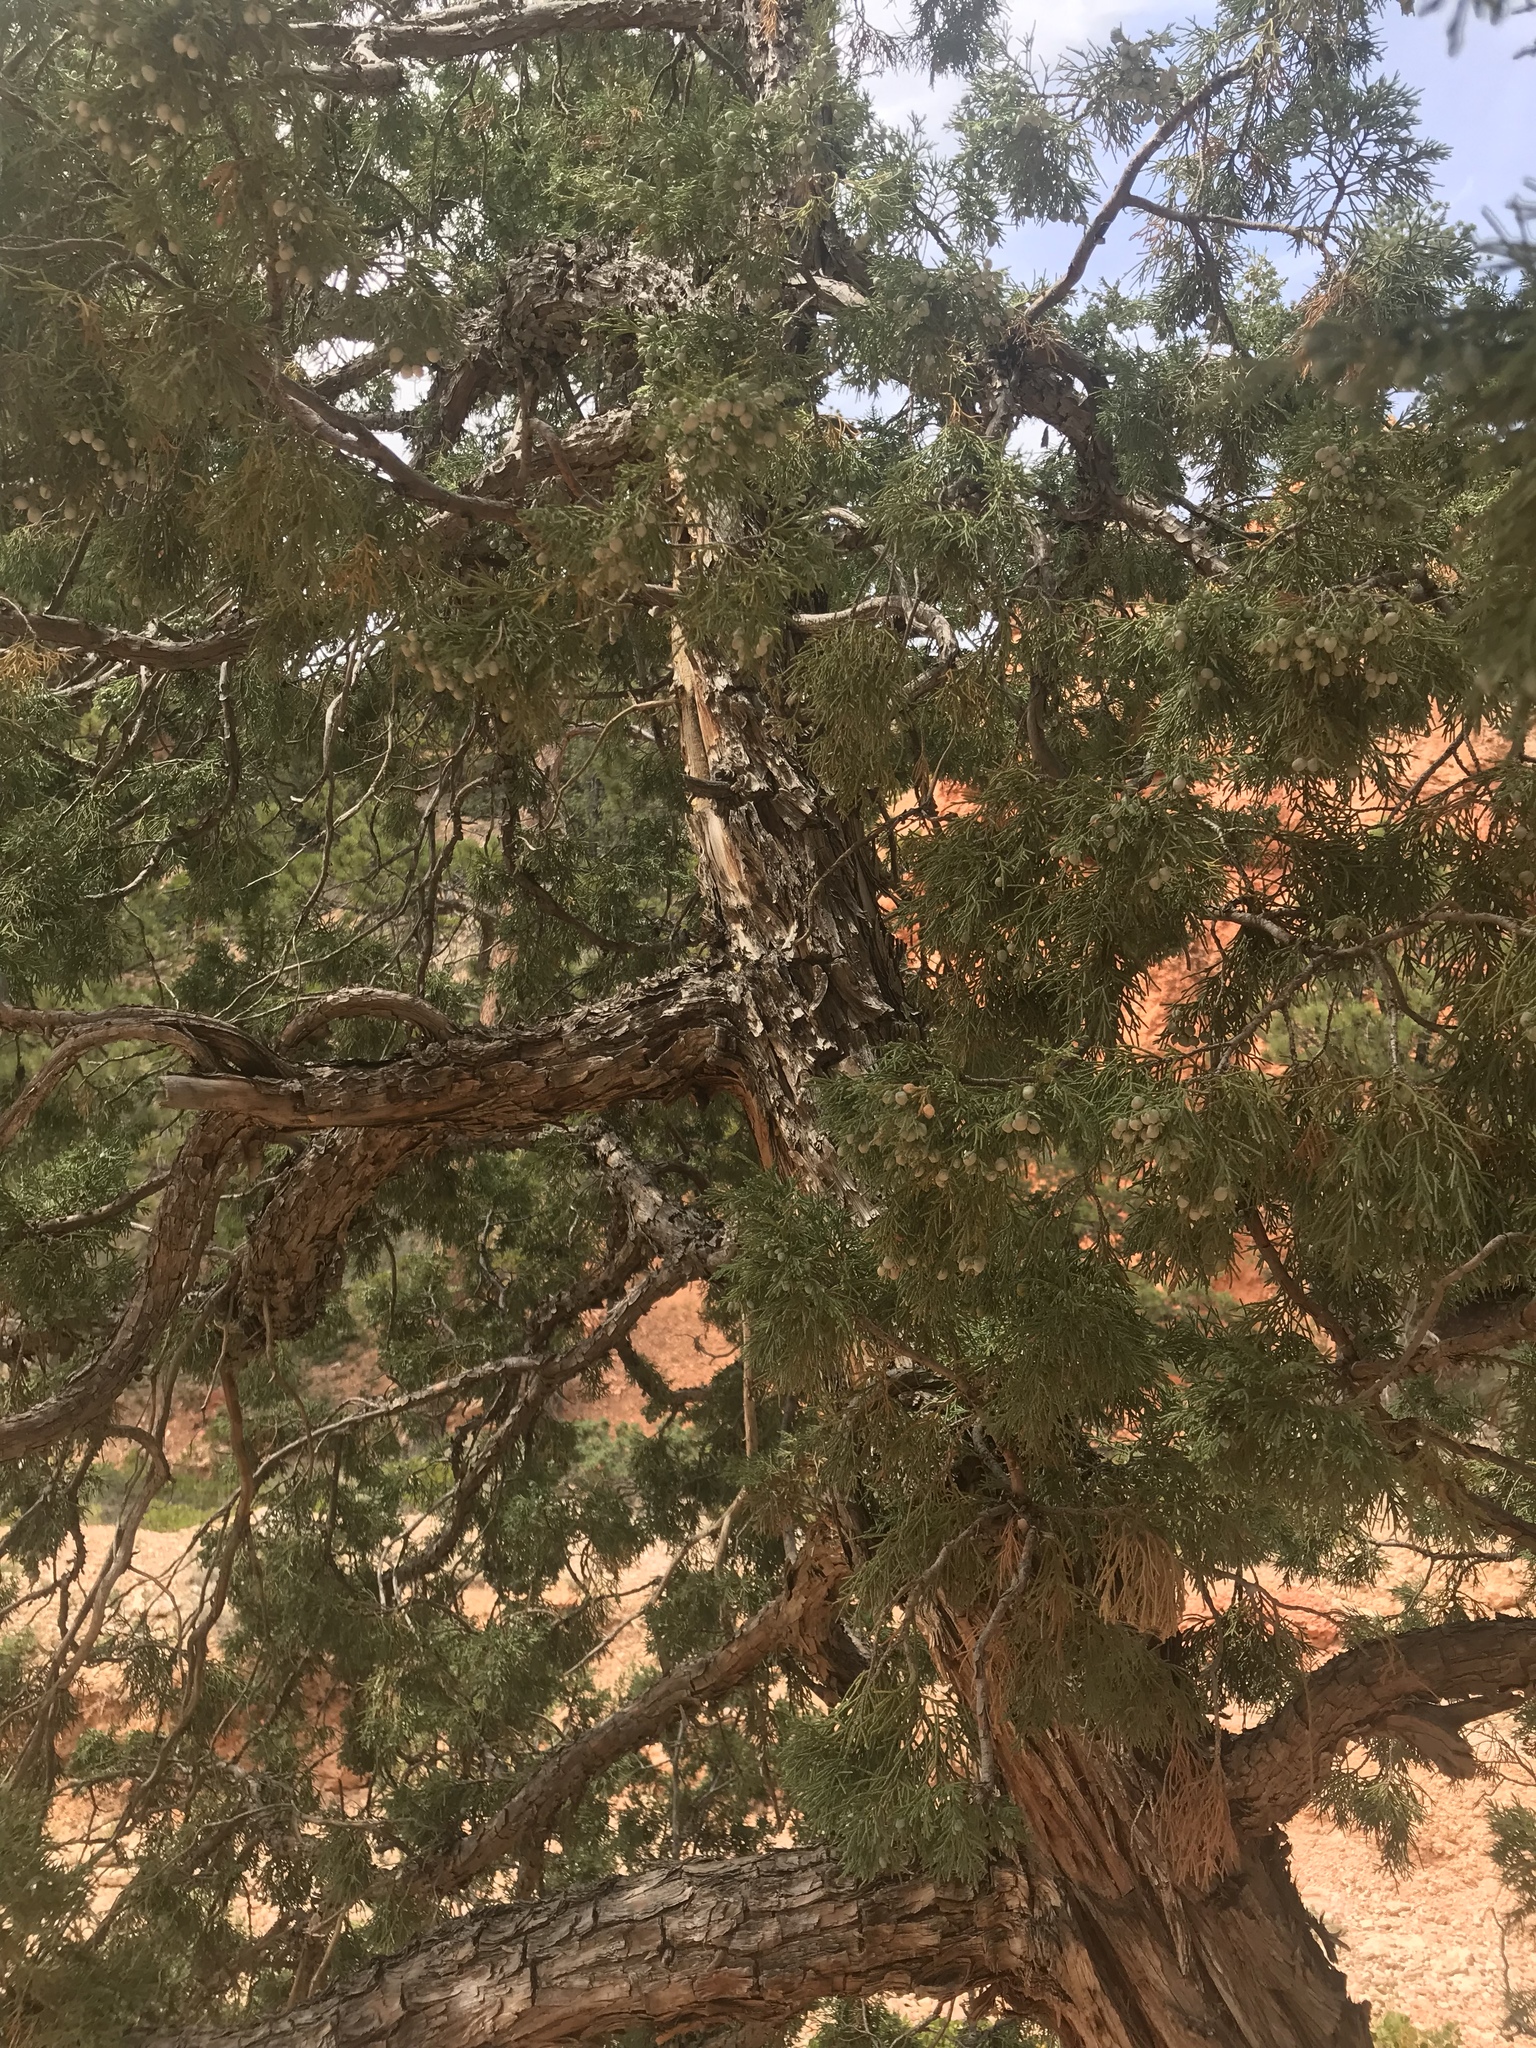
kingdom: Plantae
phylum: Tracheophyta
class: Pinopsida
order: Pinales
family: Cupressaceae
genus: Juniperus
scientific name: Juniperus scopulorum
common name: Rocky mountain juniper
